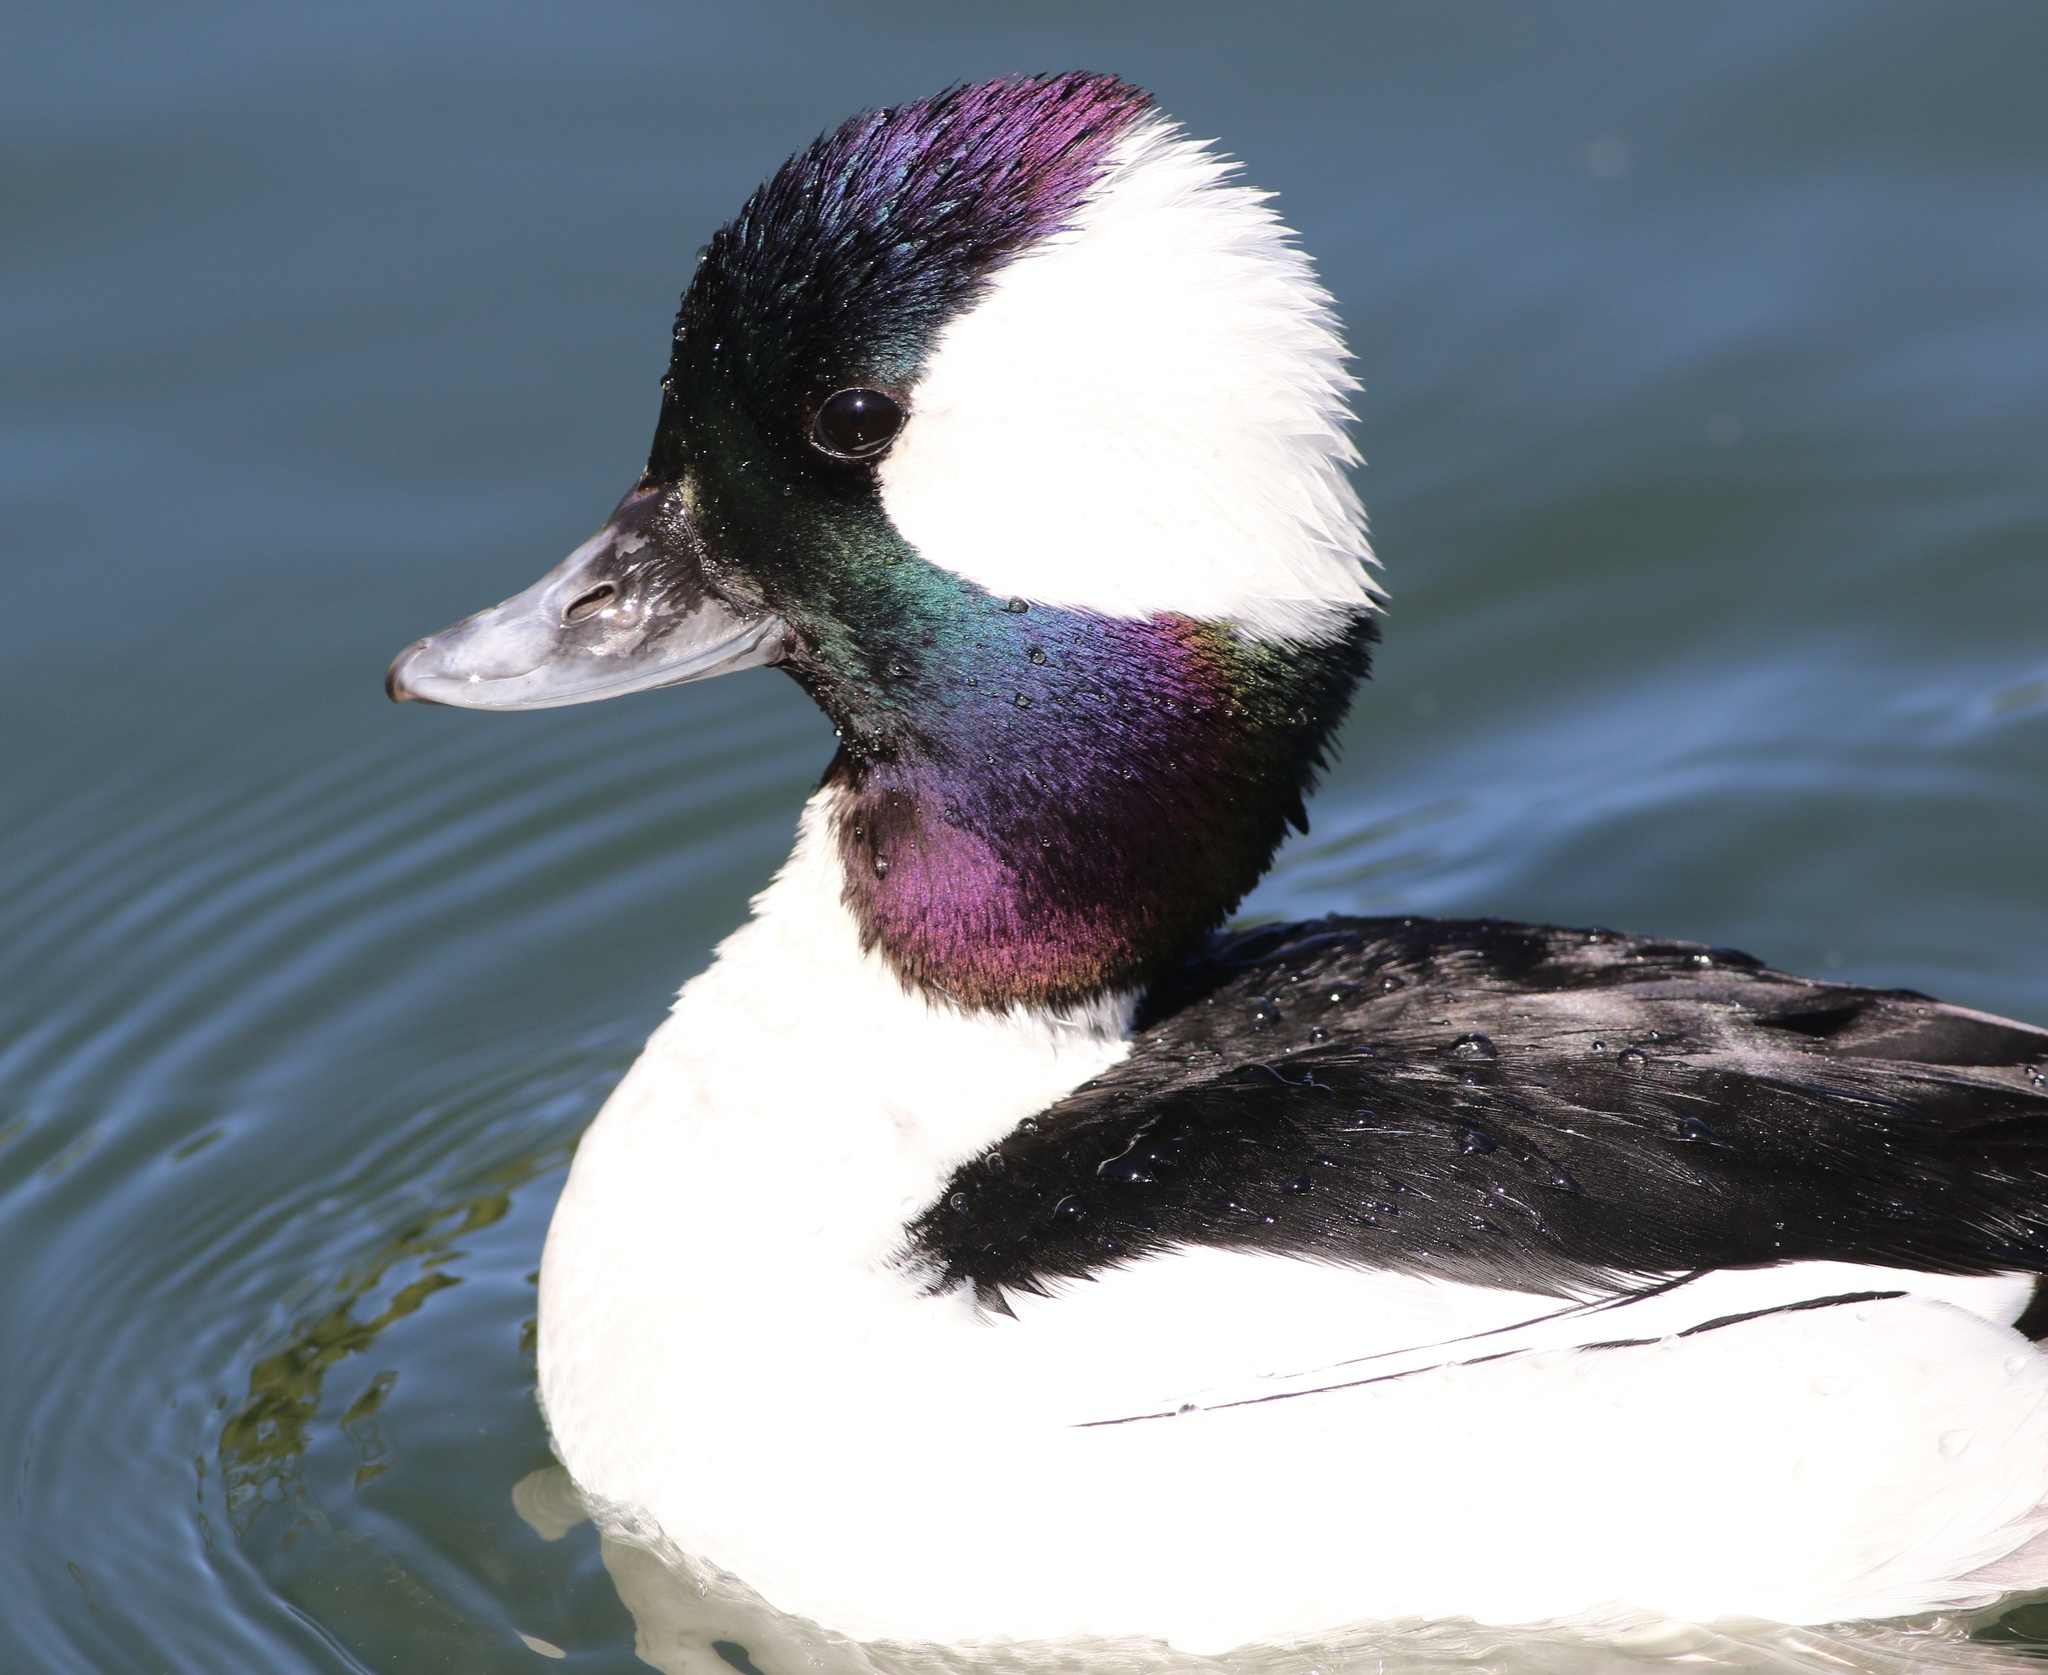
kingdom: Animalia
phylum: Chordata
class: Aves
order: Anseriformes
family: Anatidae
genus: Bucephala
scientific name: Bucephala albeola
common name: Bufflehead
